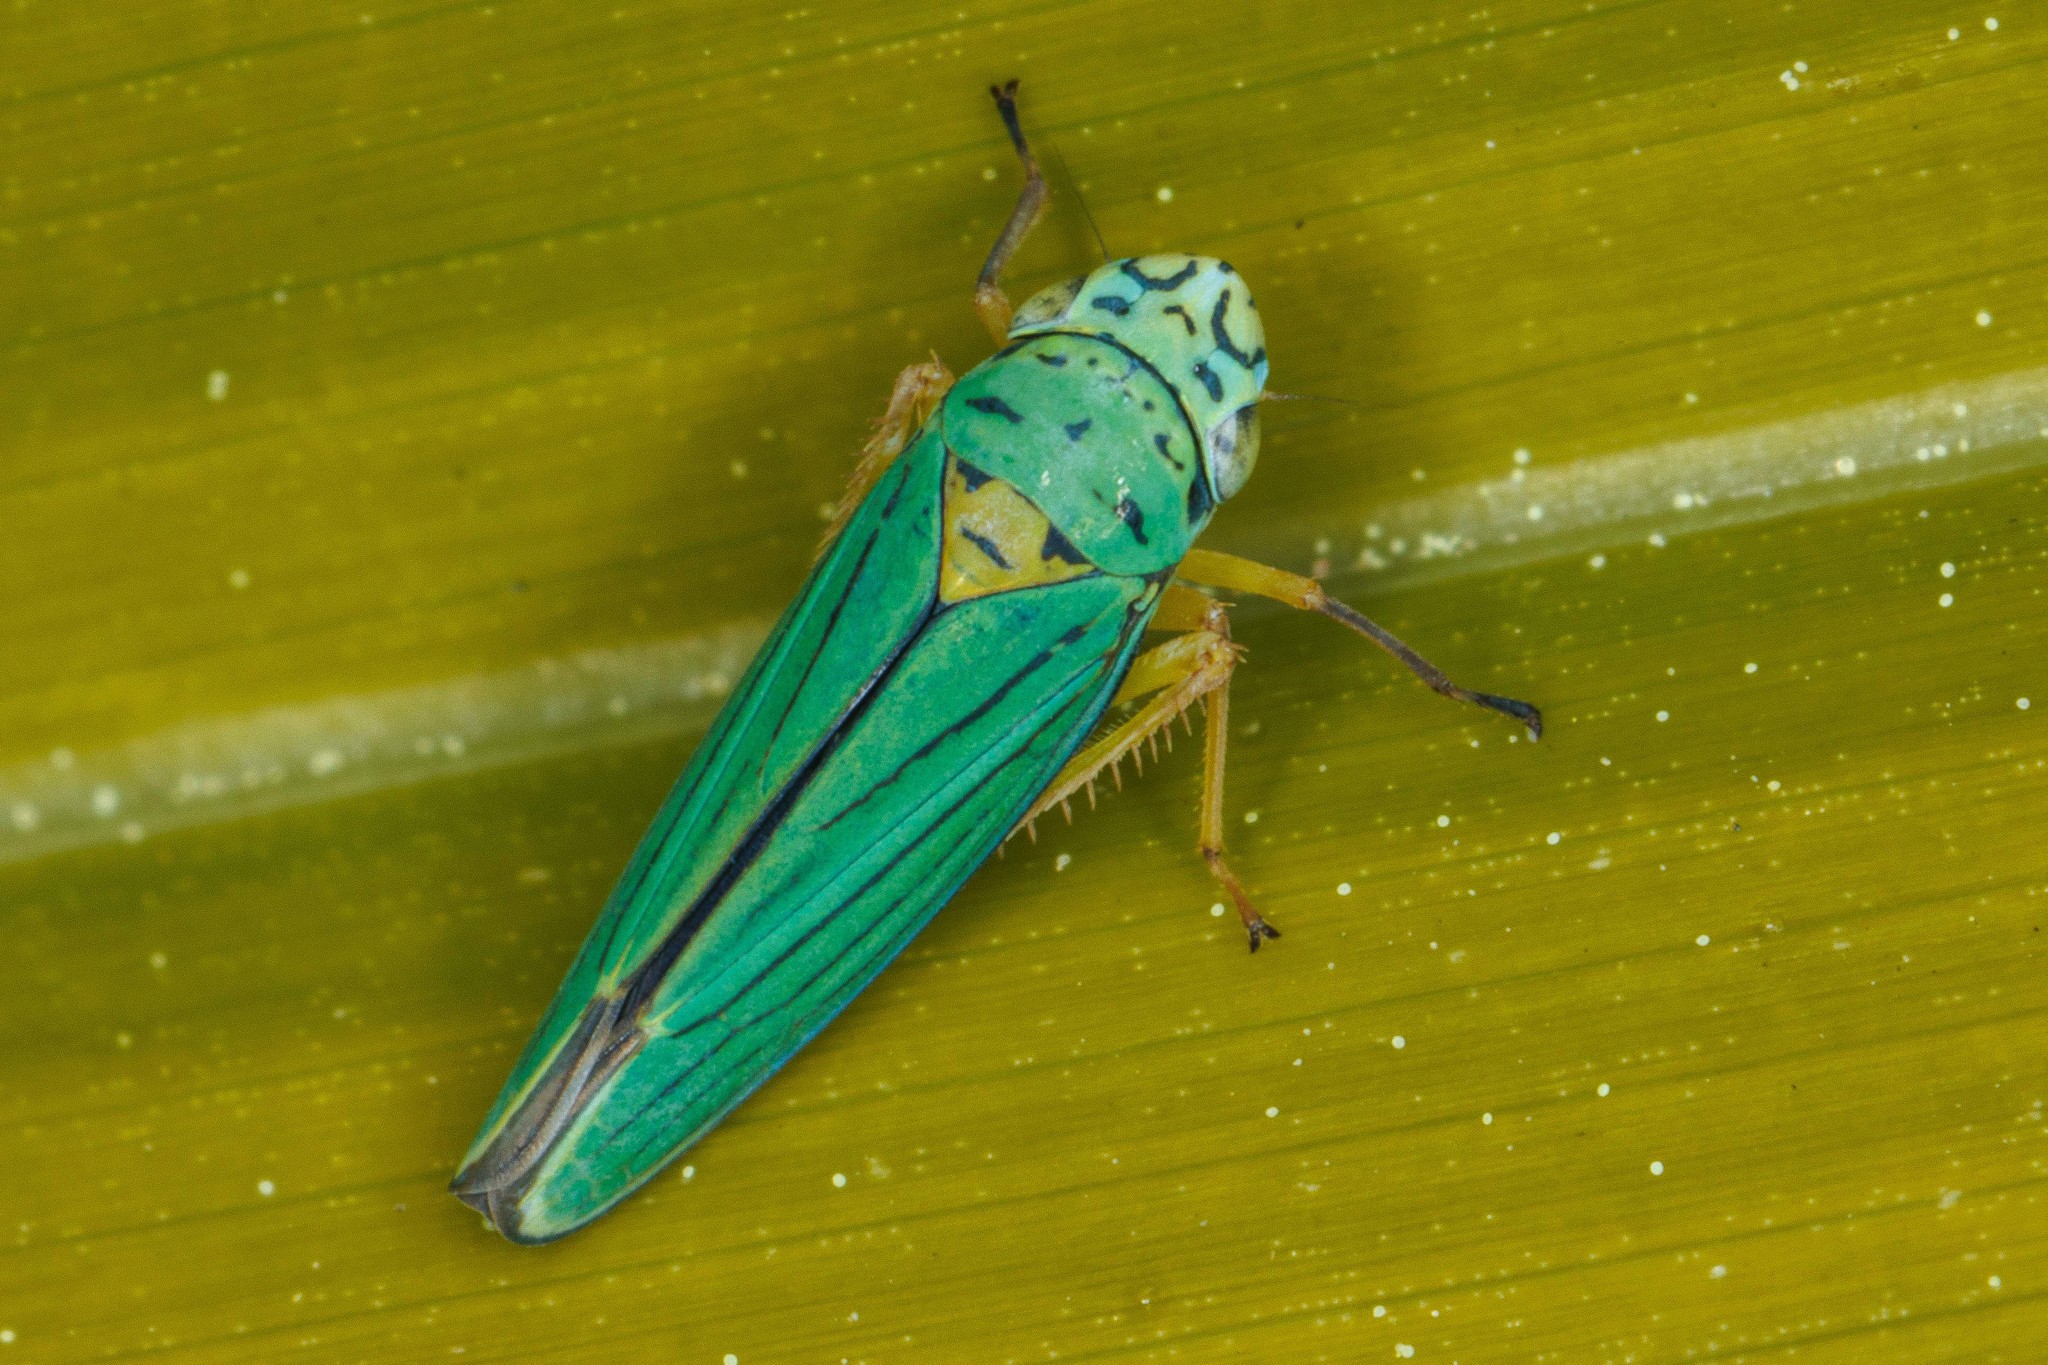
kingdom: Animalia
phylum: Arthropoda
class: Insecta
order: Hemiptera
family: Cicadellidae
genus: Graphocephala
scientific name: Graphocephala atropunctata
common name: Blue-green sharpshooter
